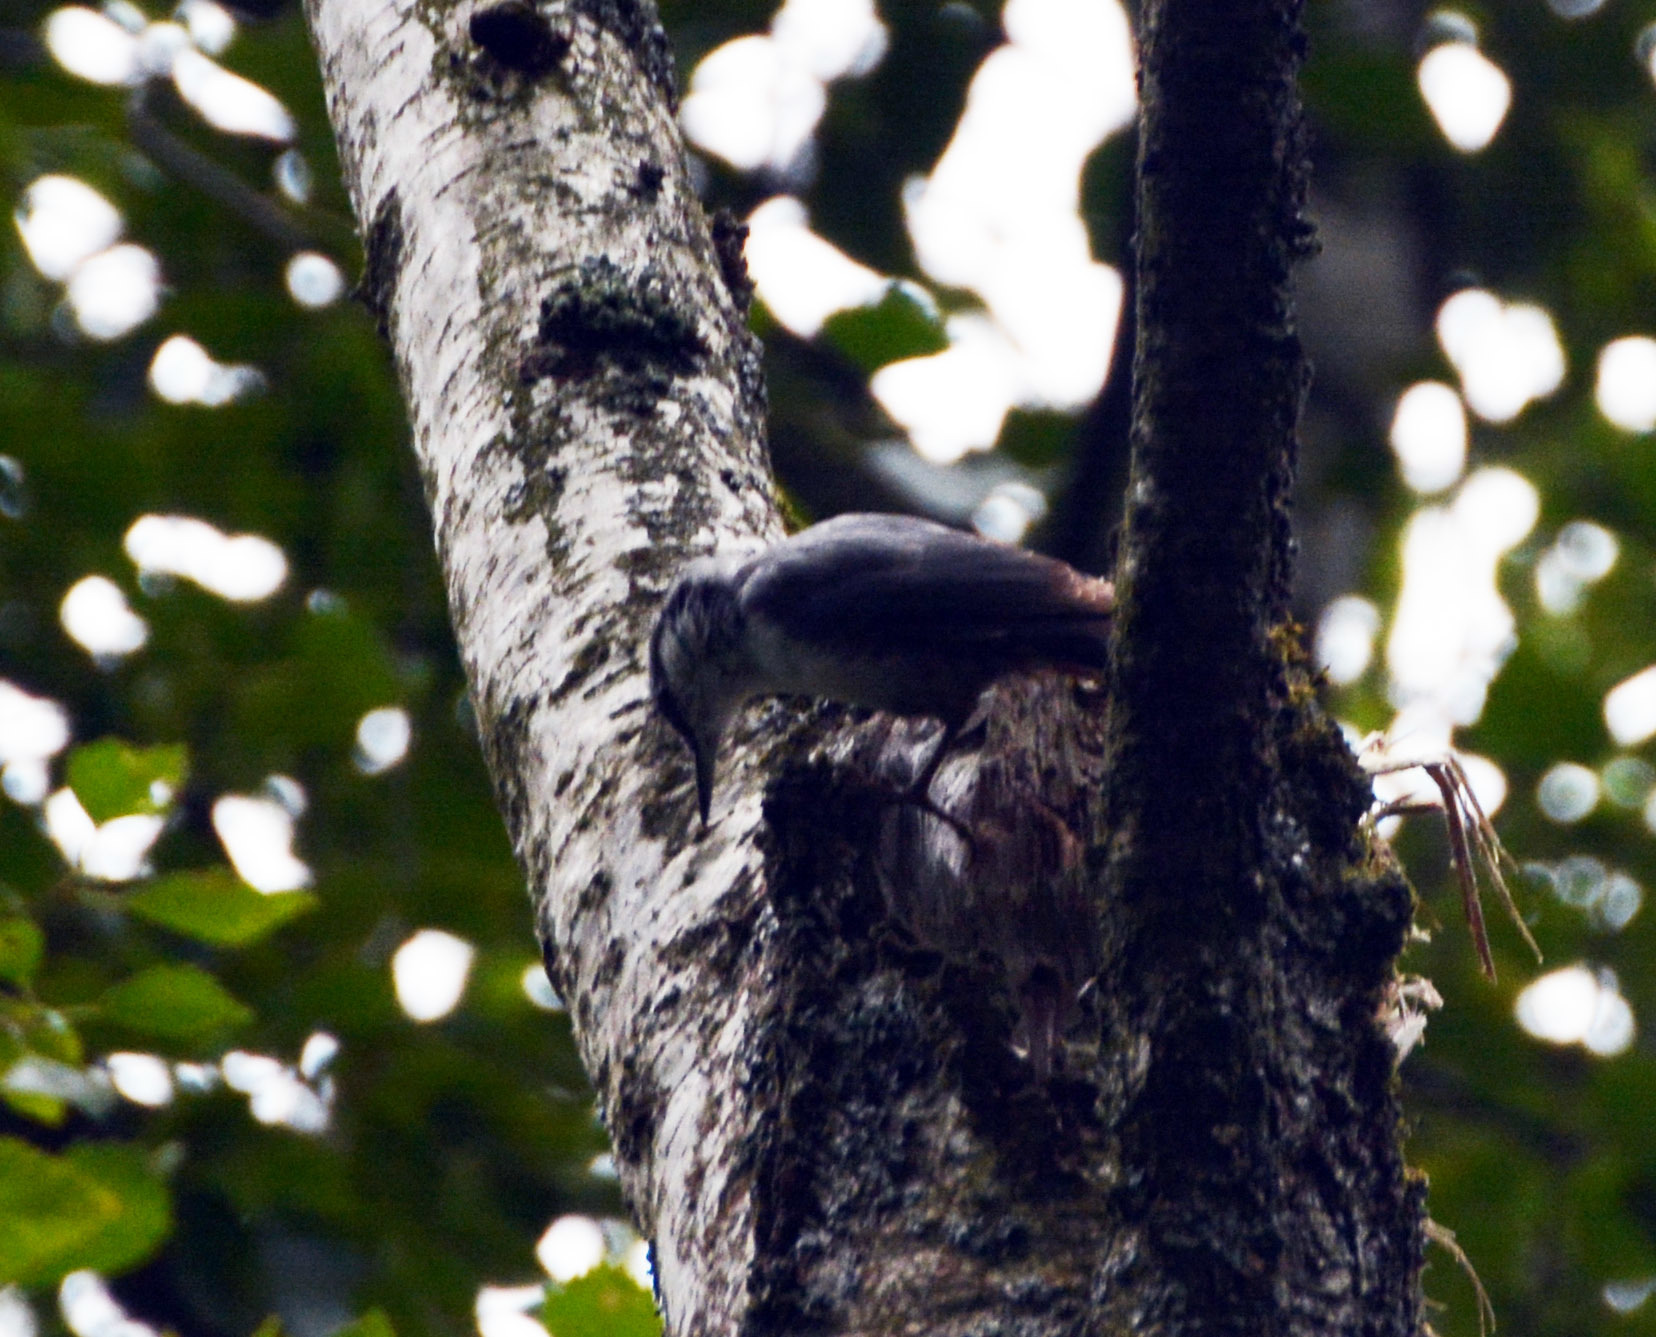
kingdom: Animalia
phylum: Chordata
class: Aves
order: Passeriformes
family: Sittidae
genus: Sitta
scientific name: Sitta europaea
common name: Eurasian nuthatch
